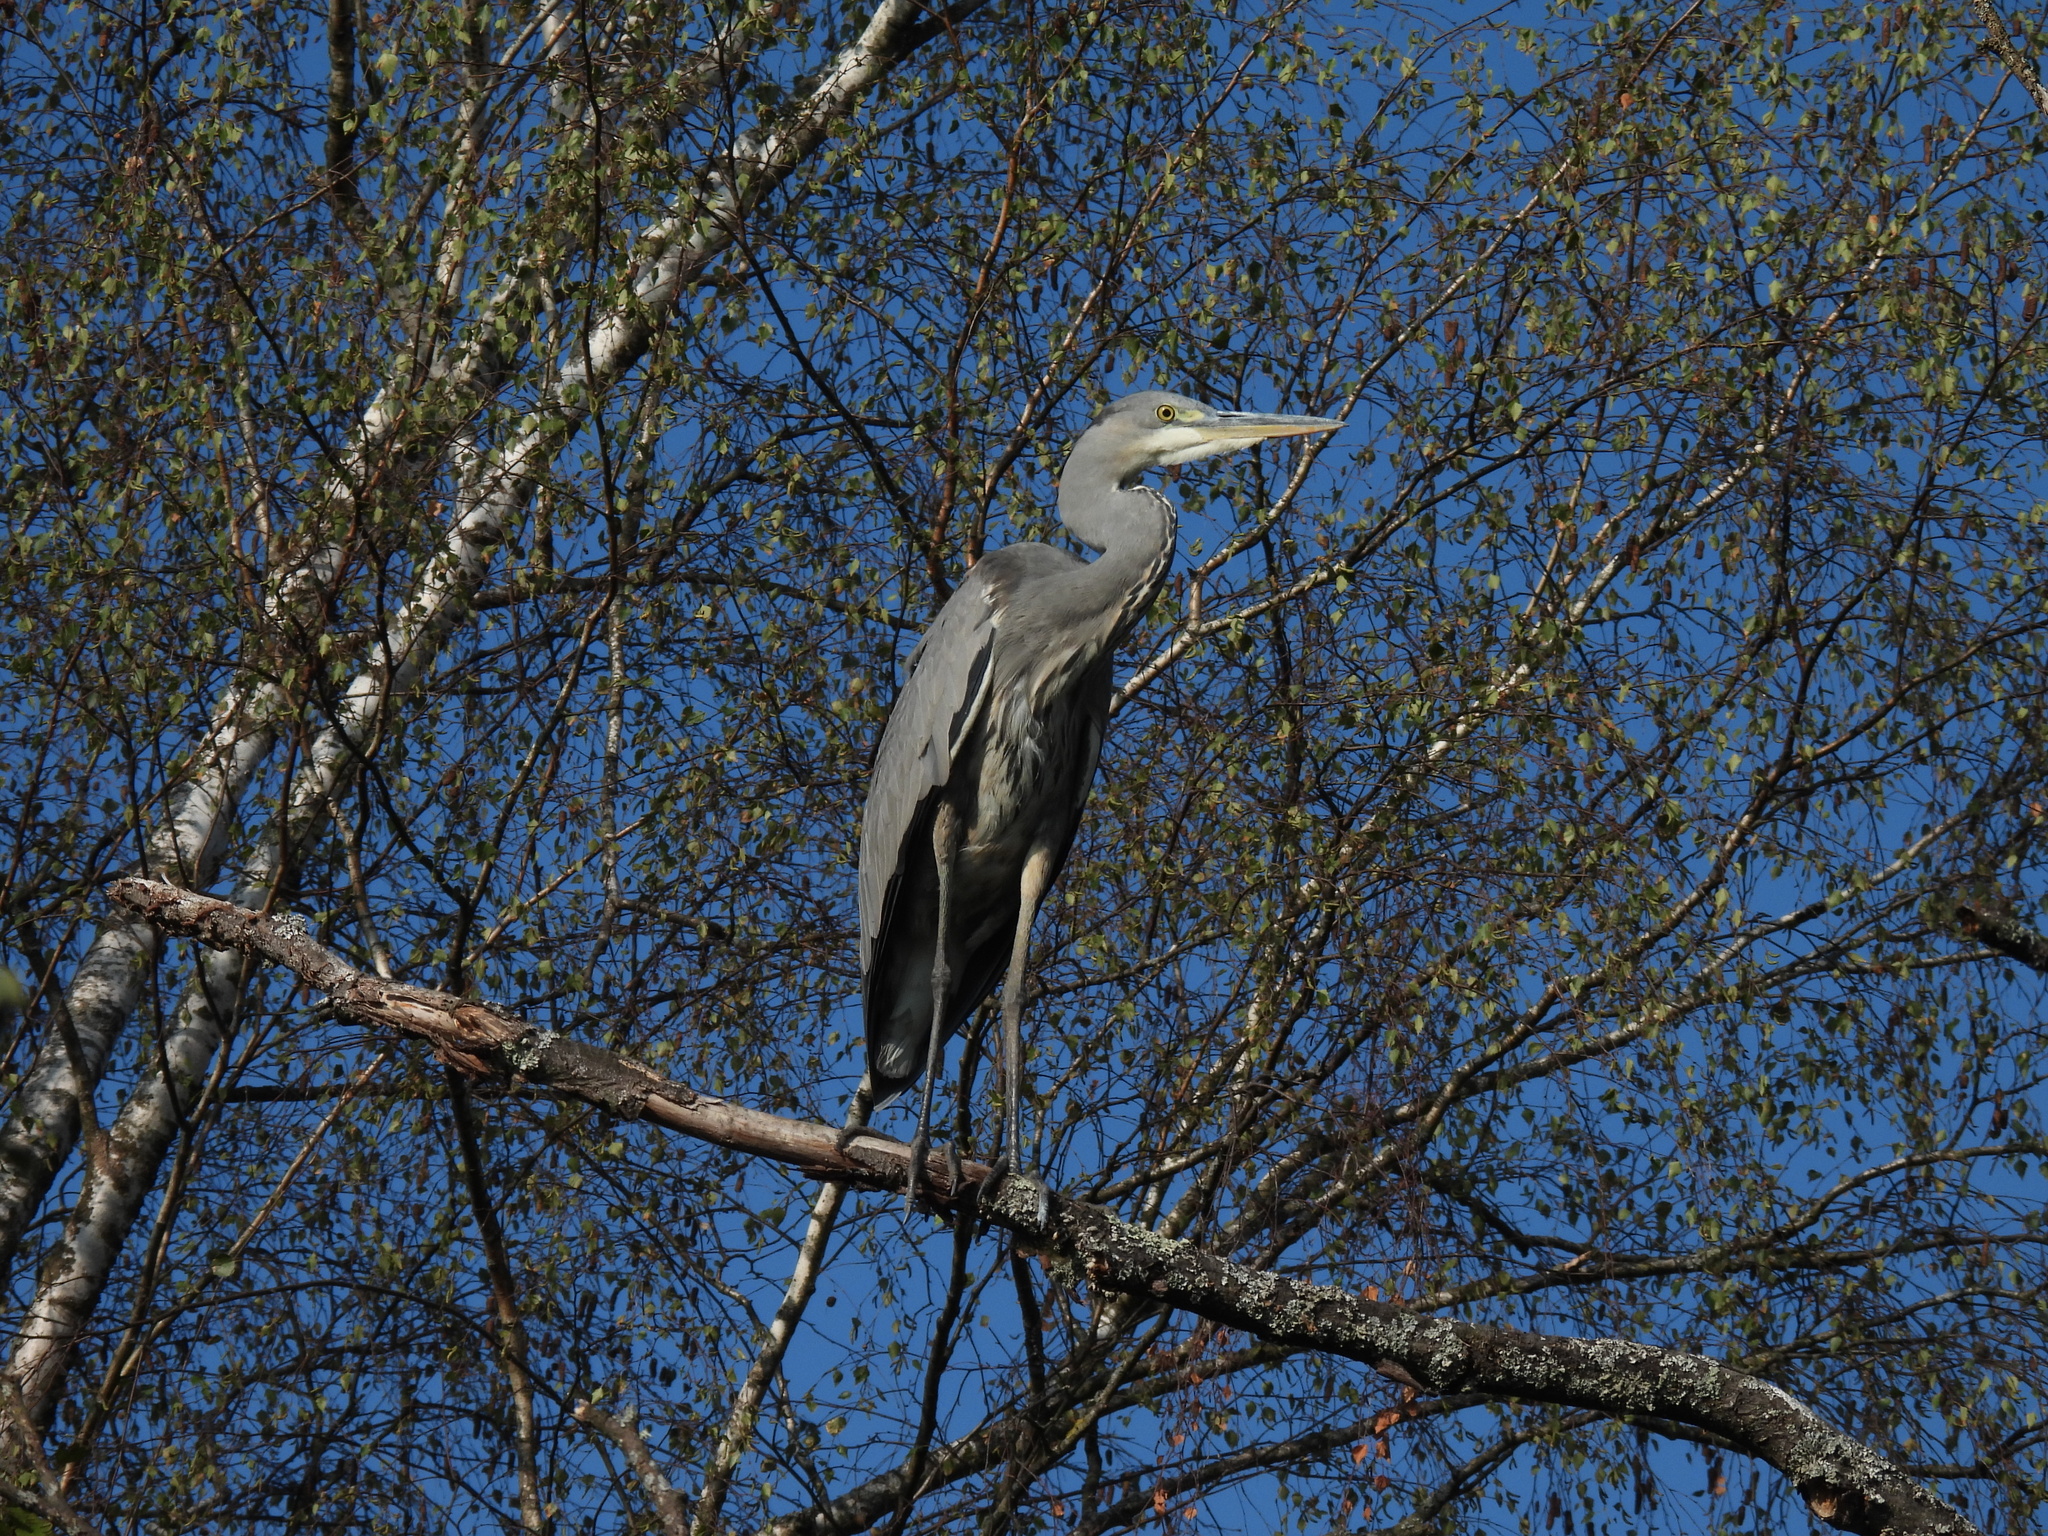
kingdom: Animalia
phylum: Chordata
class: Aves
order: Pelecaniformes
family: Ardeidae
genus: Ardea
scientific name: Ardea cinerea
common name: Grey heron
